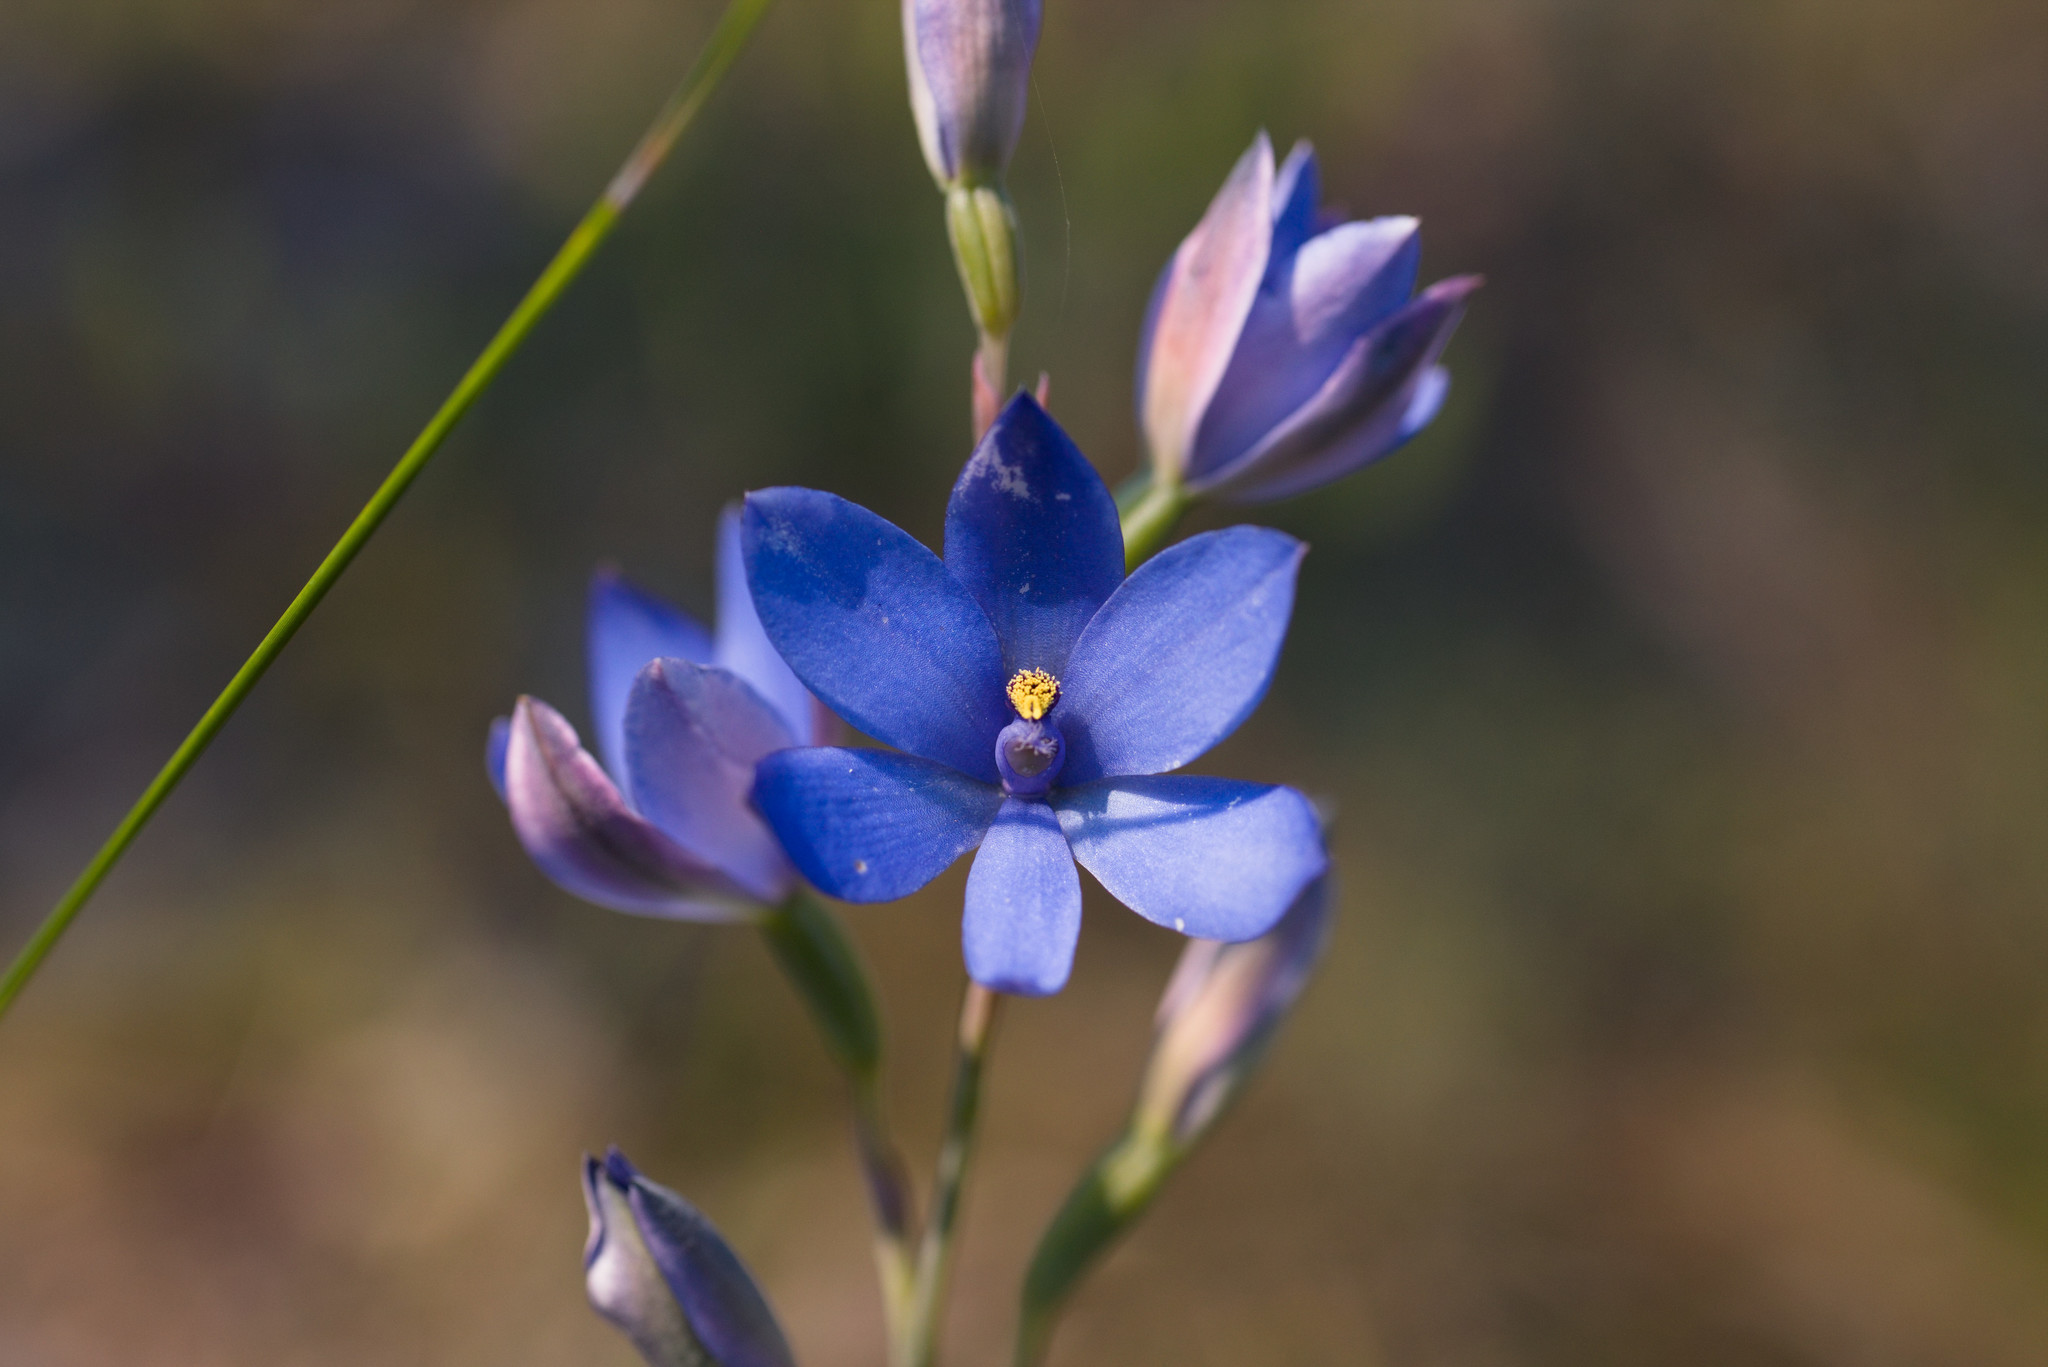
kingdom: Plantae
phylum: Tracheophyta
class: Liliopsida
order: Asparagales
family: Orchidaceae
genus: Thelymitra
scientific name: Thelymitra crinita
